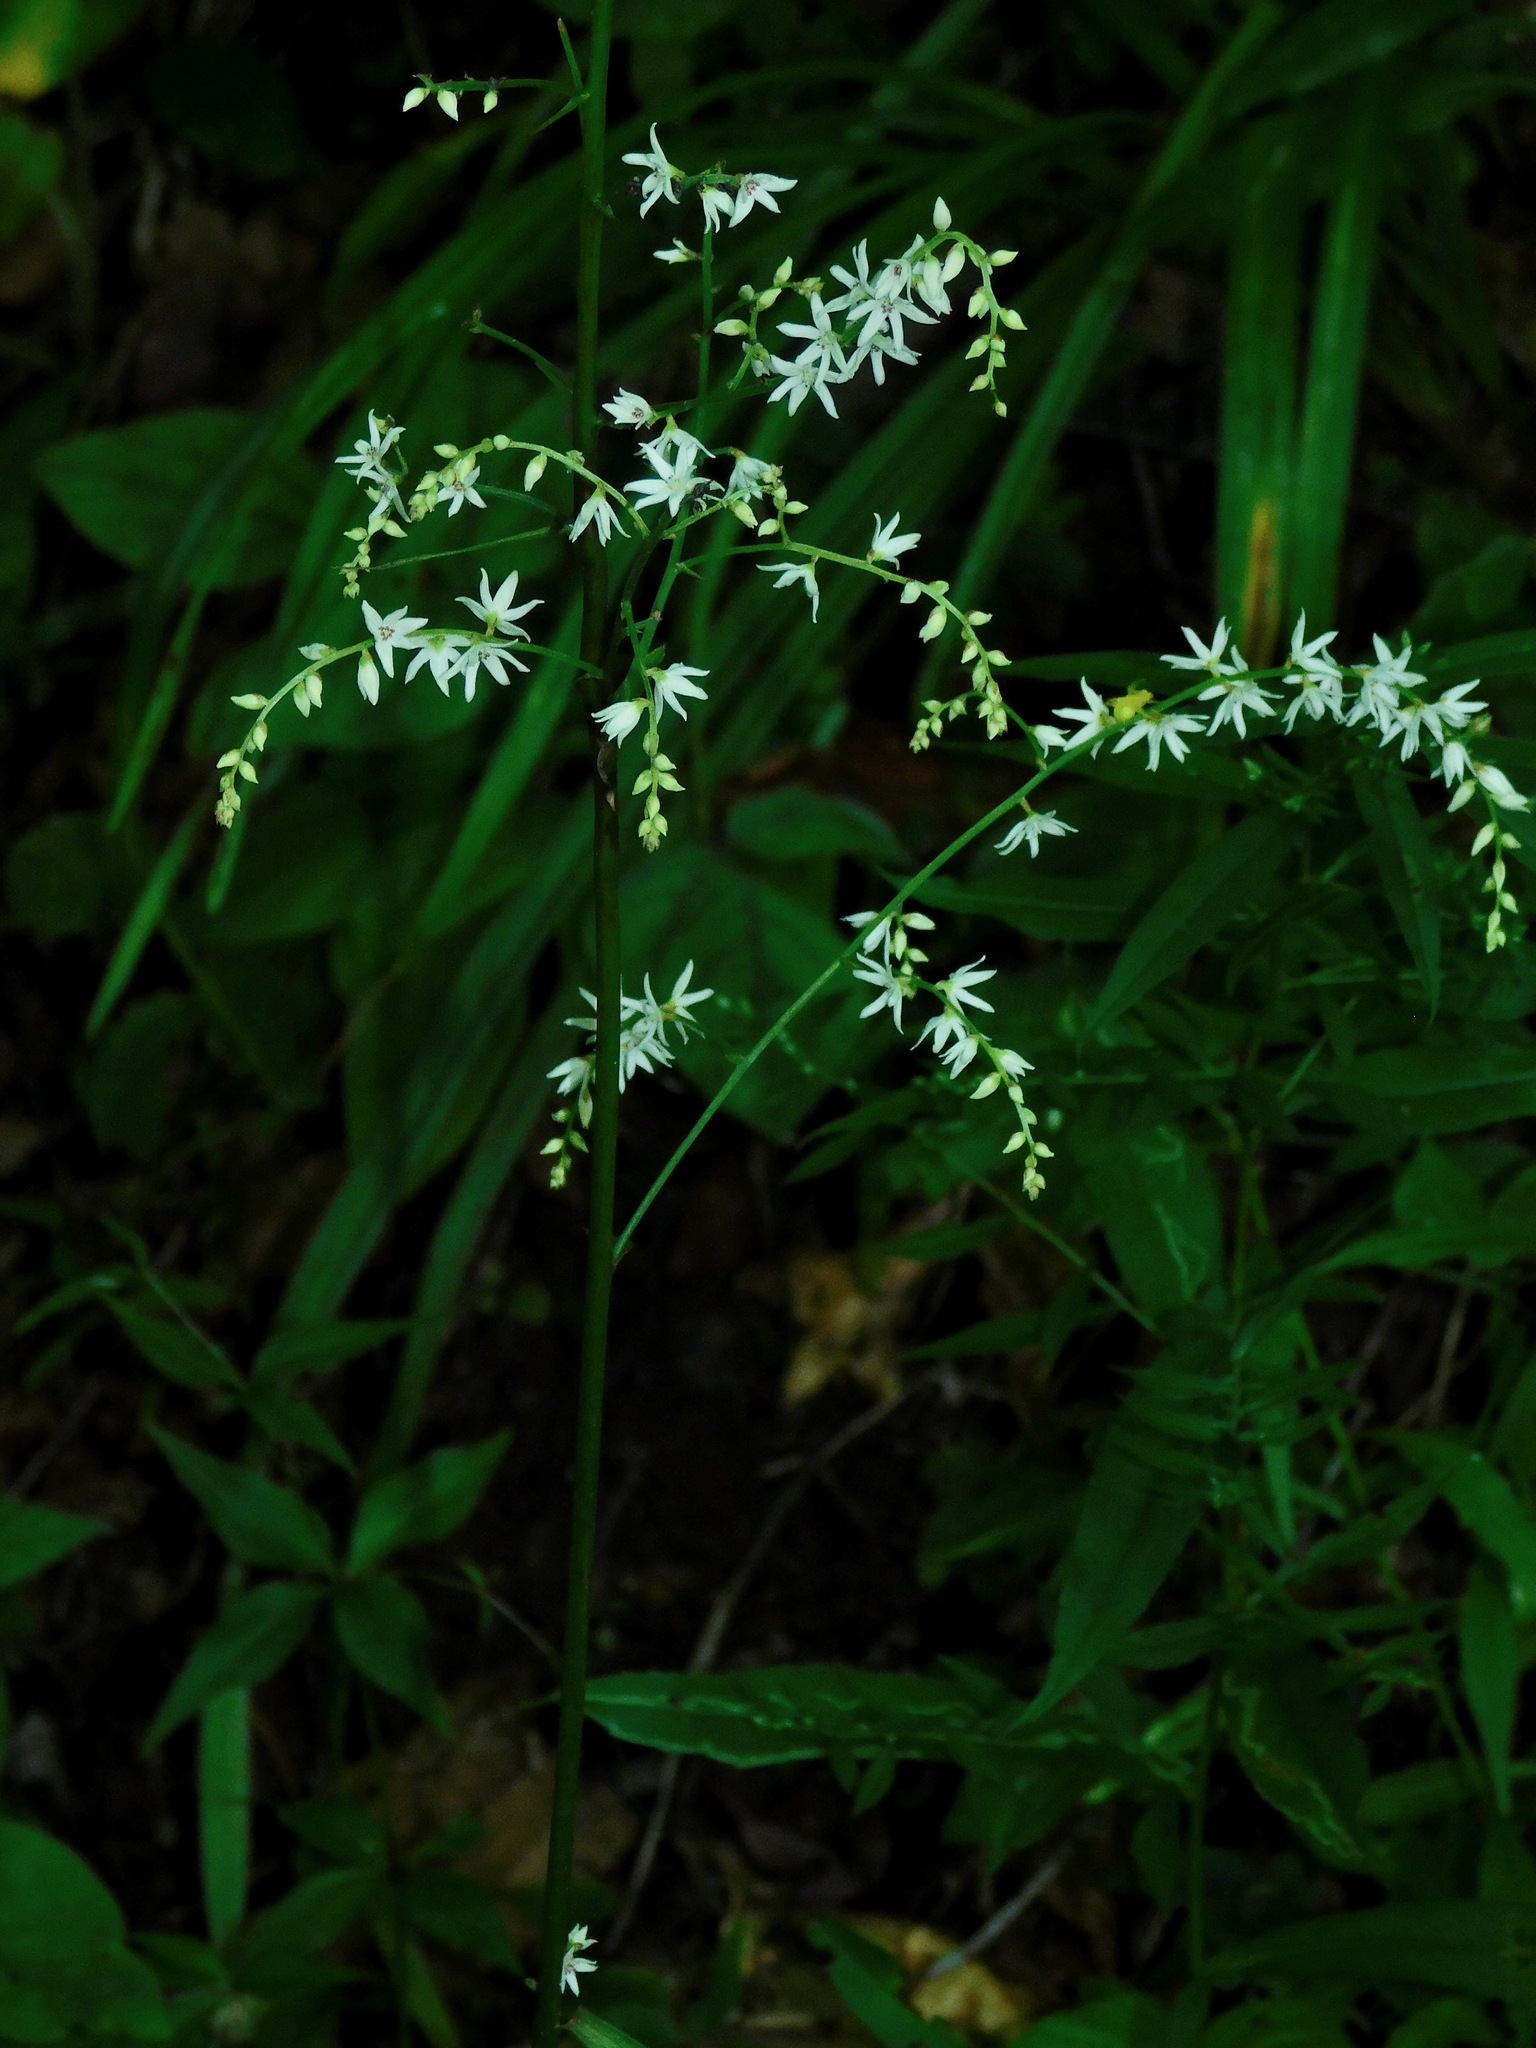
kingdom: Plantae
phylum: Tracheophyta
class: Liliopsida
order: Liliales
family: Melanthiaceae
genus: Stenanthium
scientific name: Stenanthium gramineum
